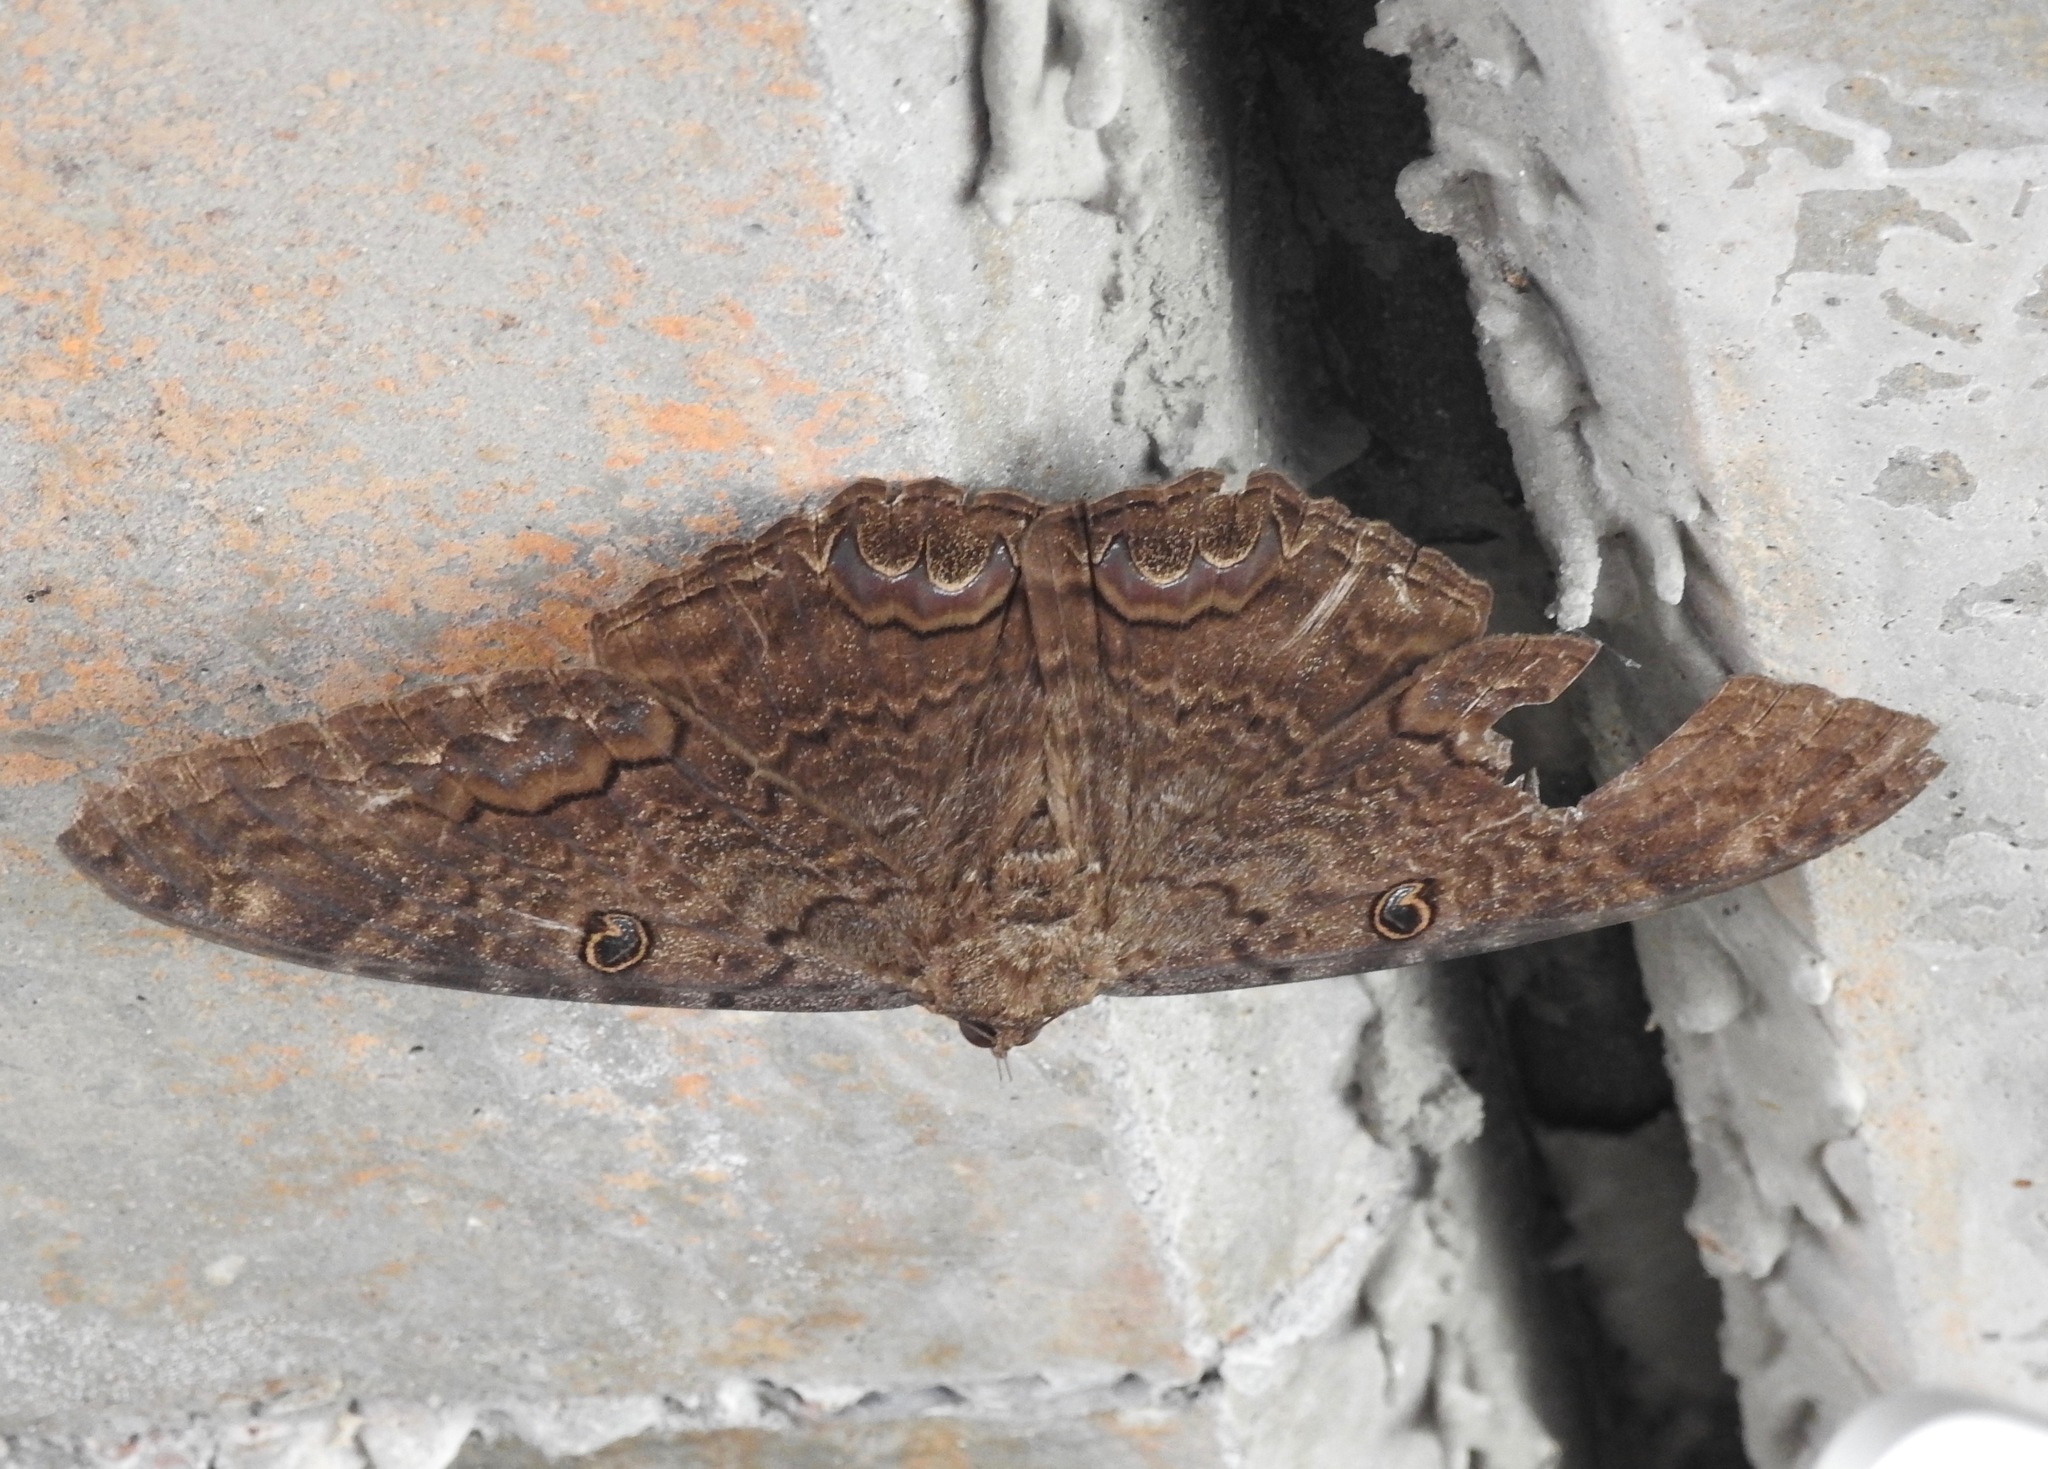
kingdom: Animalia
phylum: Arthropoda
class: Insecta
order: Lepidoptera
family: Erebidae
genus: Ascalapha
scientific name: Ascalapha odorata
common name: Black witch
